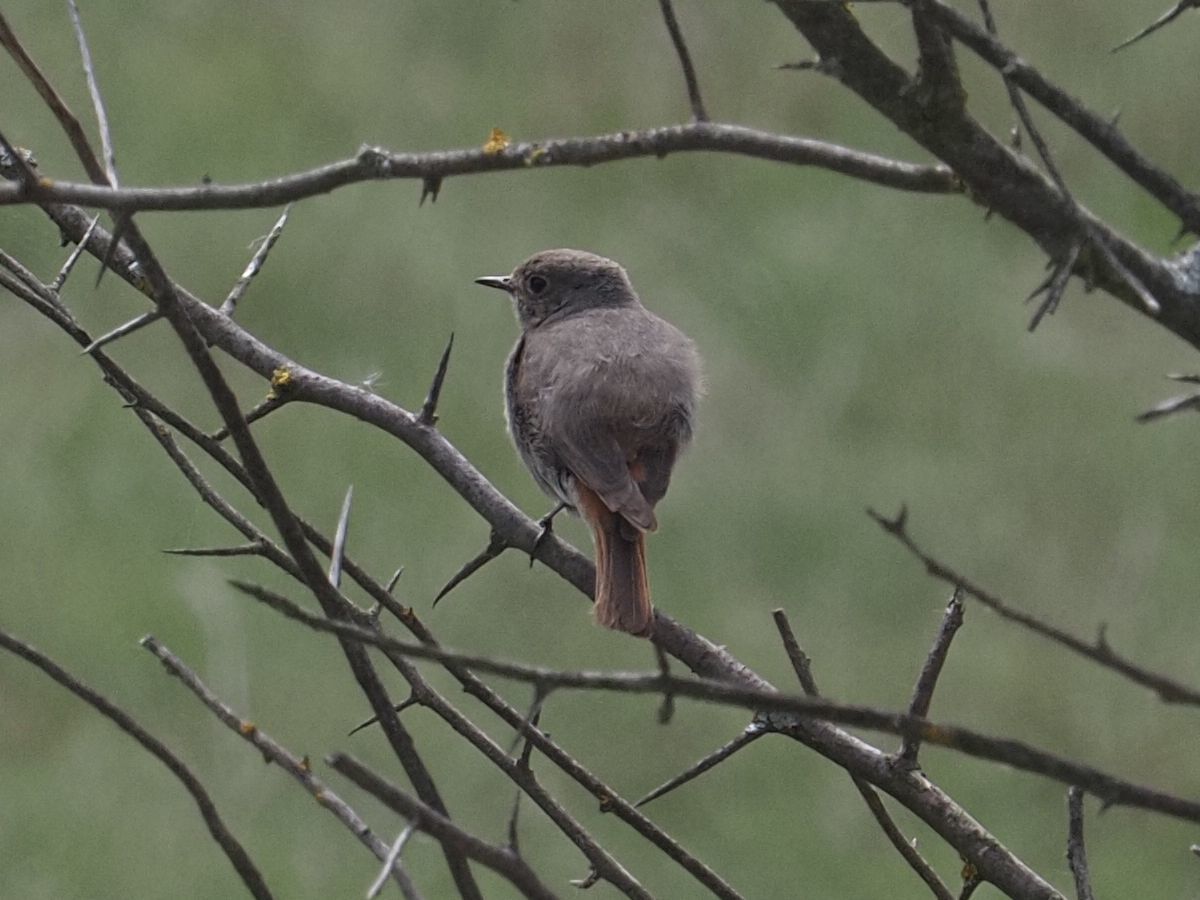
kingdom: Animalia
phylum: Chordata
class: Aves
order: Passeriformes
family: Muscicapidae
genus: Phoenicurus
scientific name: Phoenicurus ochruros
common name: Black redstart
